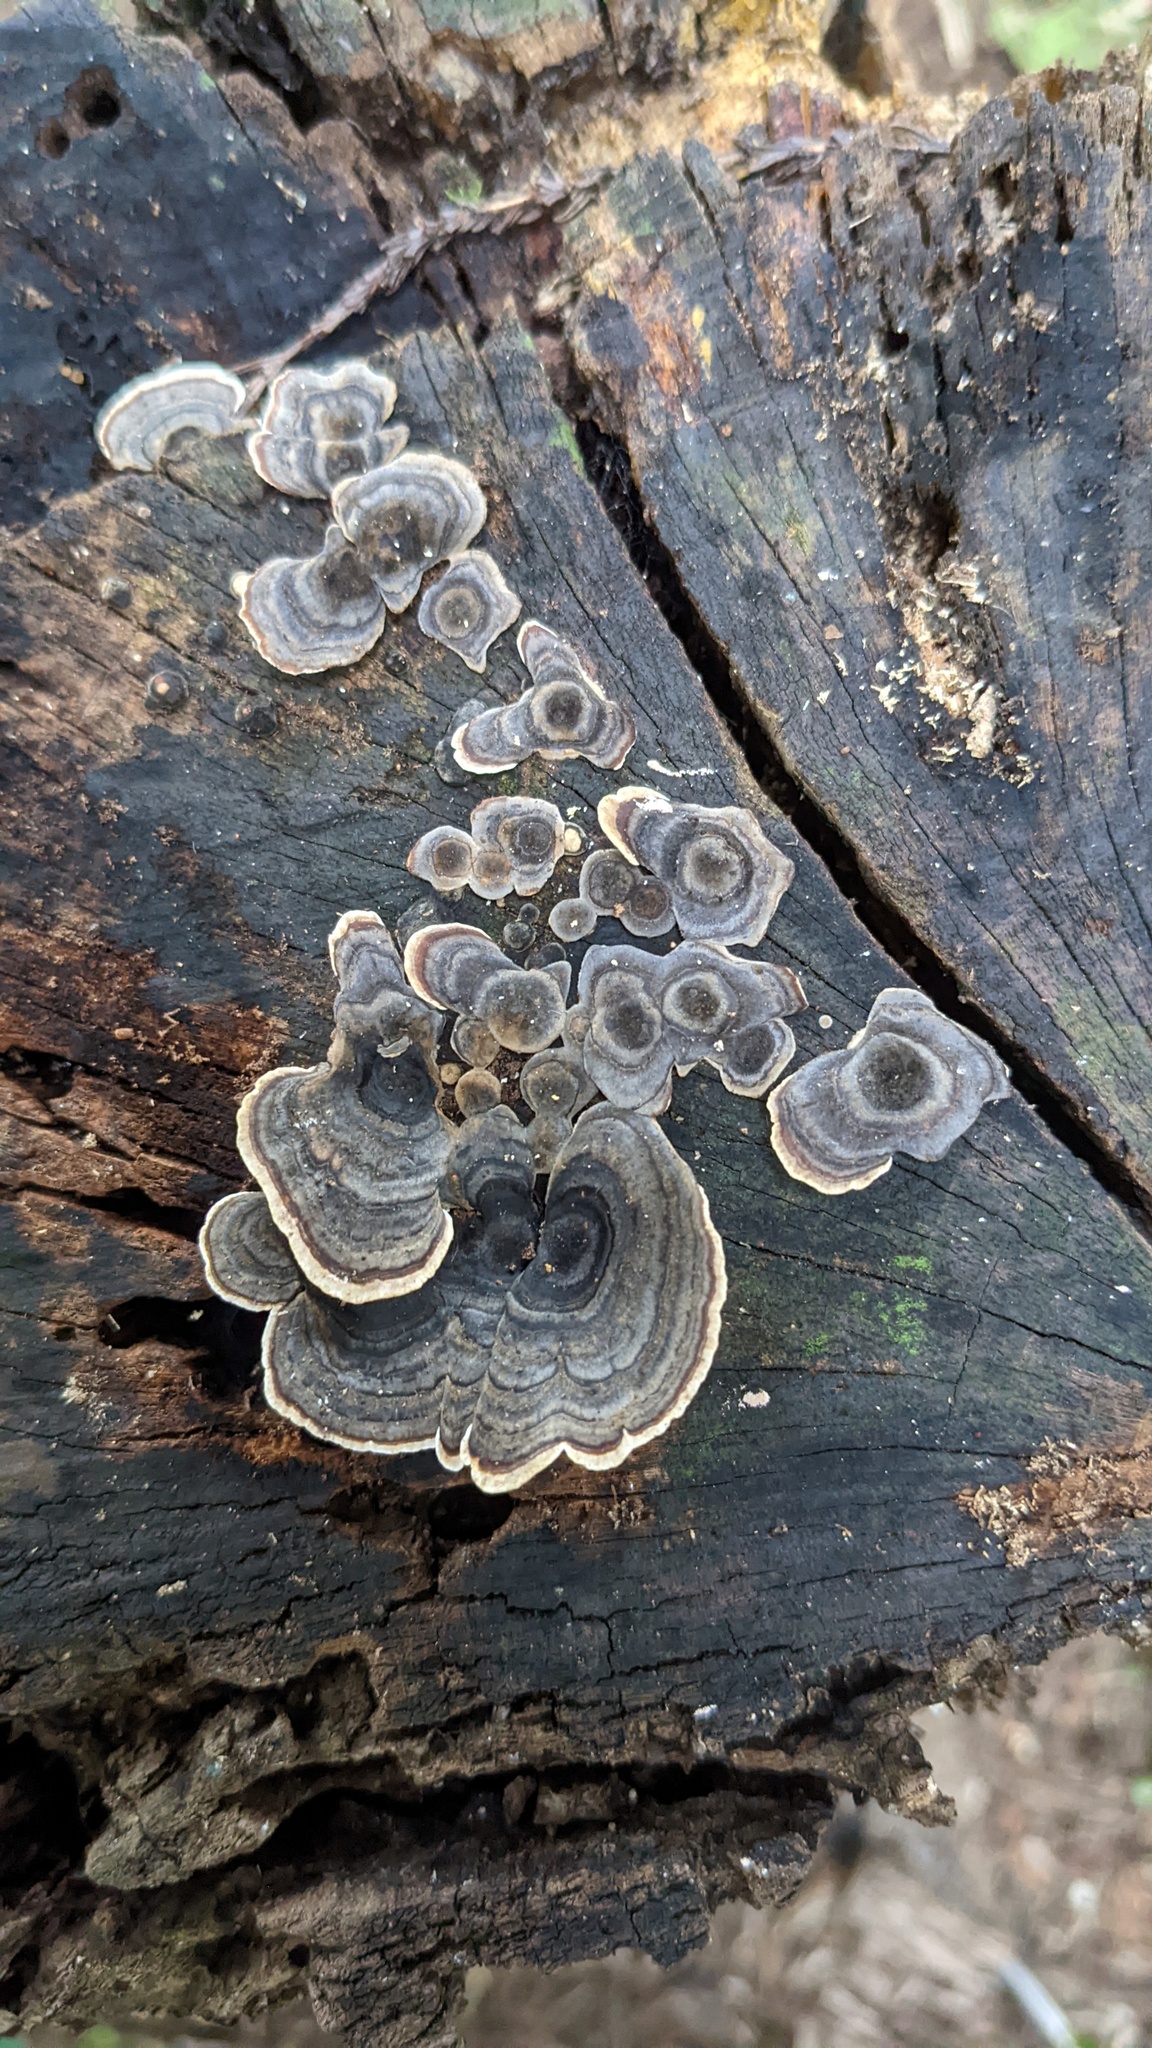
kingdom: Fungi
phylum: Basidiomycota
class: Agaricomycetes
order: Polyporales
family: Polyporaceae
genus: Trametes
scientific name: Trametes versicolor
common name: Turkeytail
